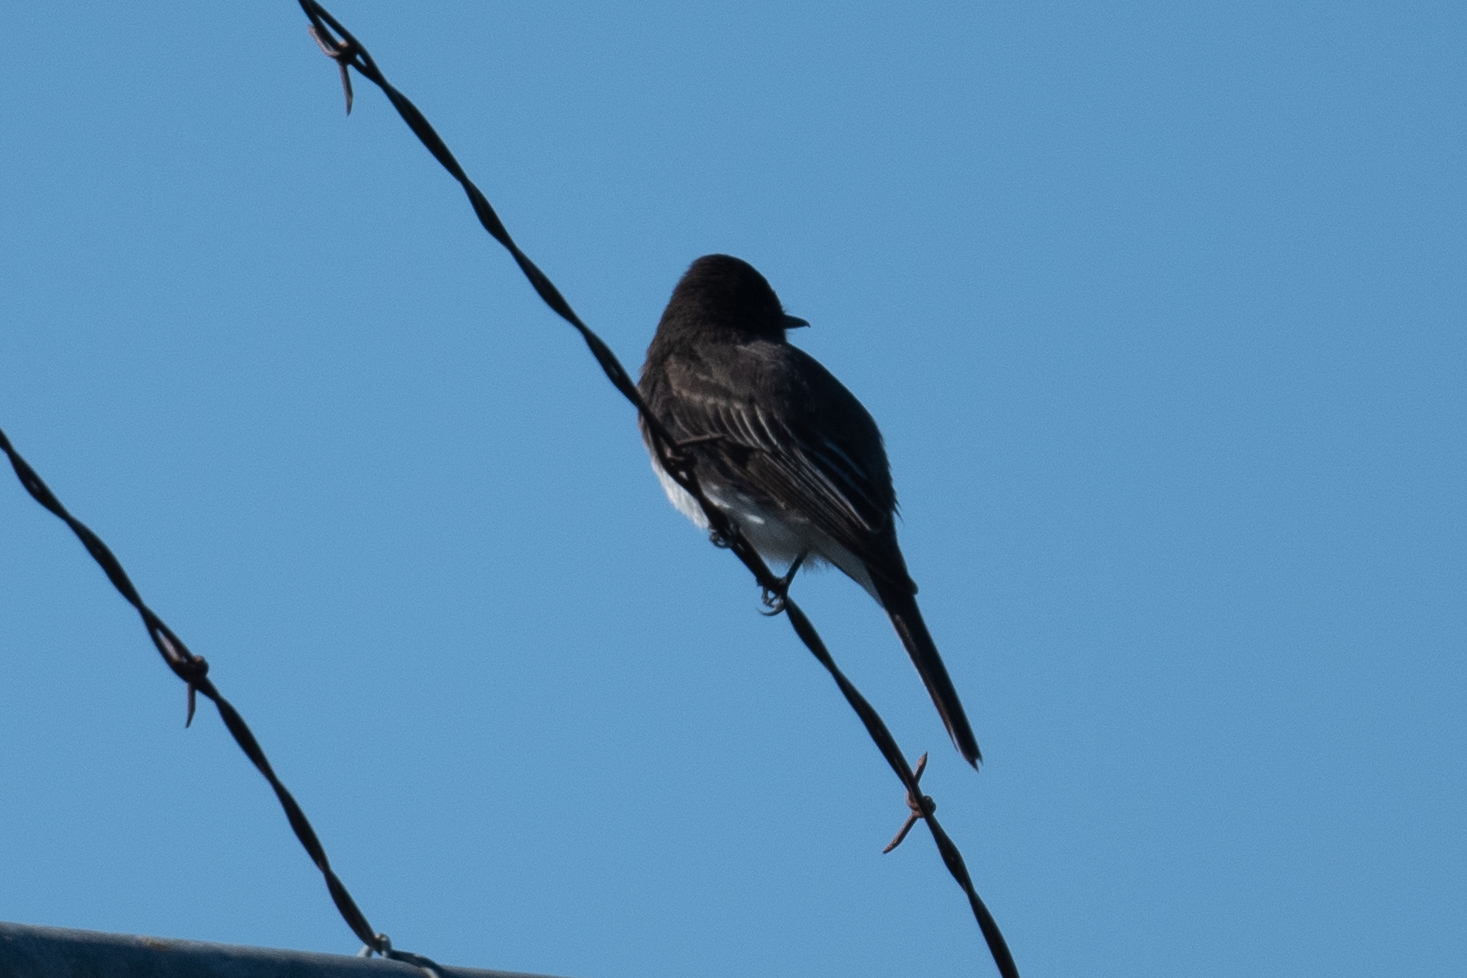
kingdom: Animalia
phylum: Chordata
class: Aves
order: Passeriformes
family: Tyrannidae
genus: Sayornis
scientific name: Sayornis nigricans
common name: Black phoebe
